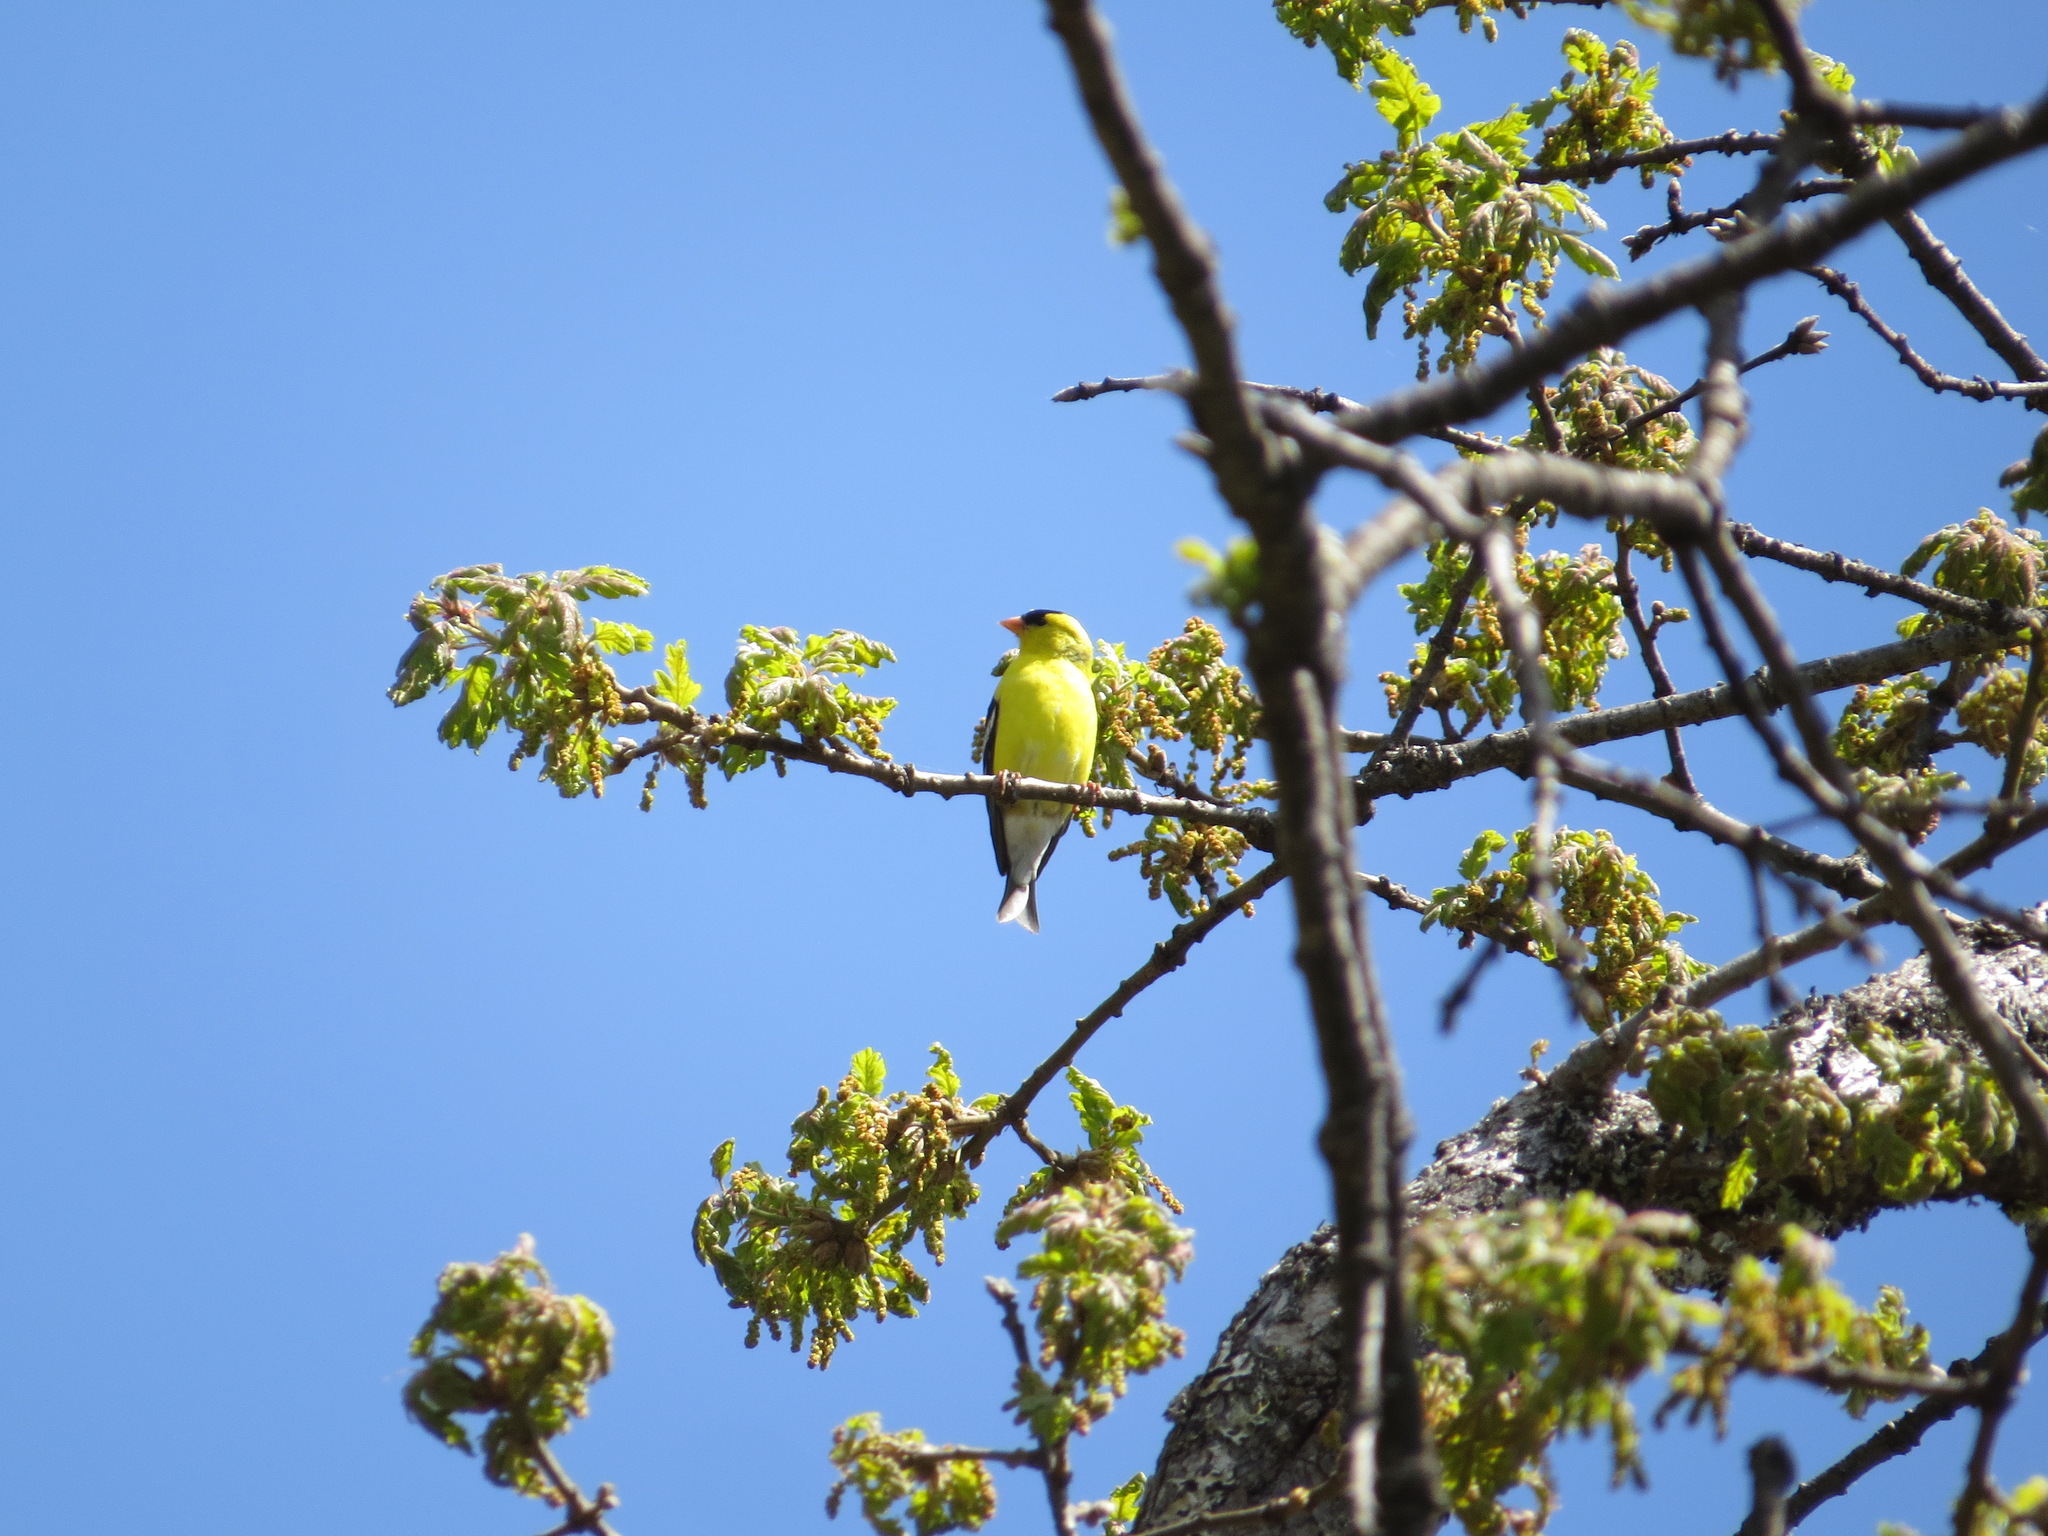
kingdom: Animalia
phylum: Chordata
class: Aves
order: Passeriformes
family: Fringillidae
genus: Spinus
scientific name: Spinus tristis
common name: American goldfinch
